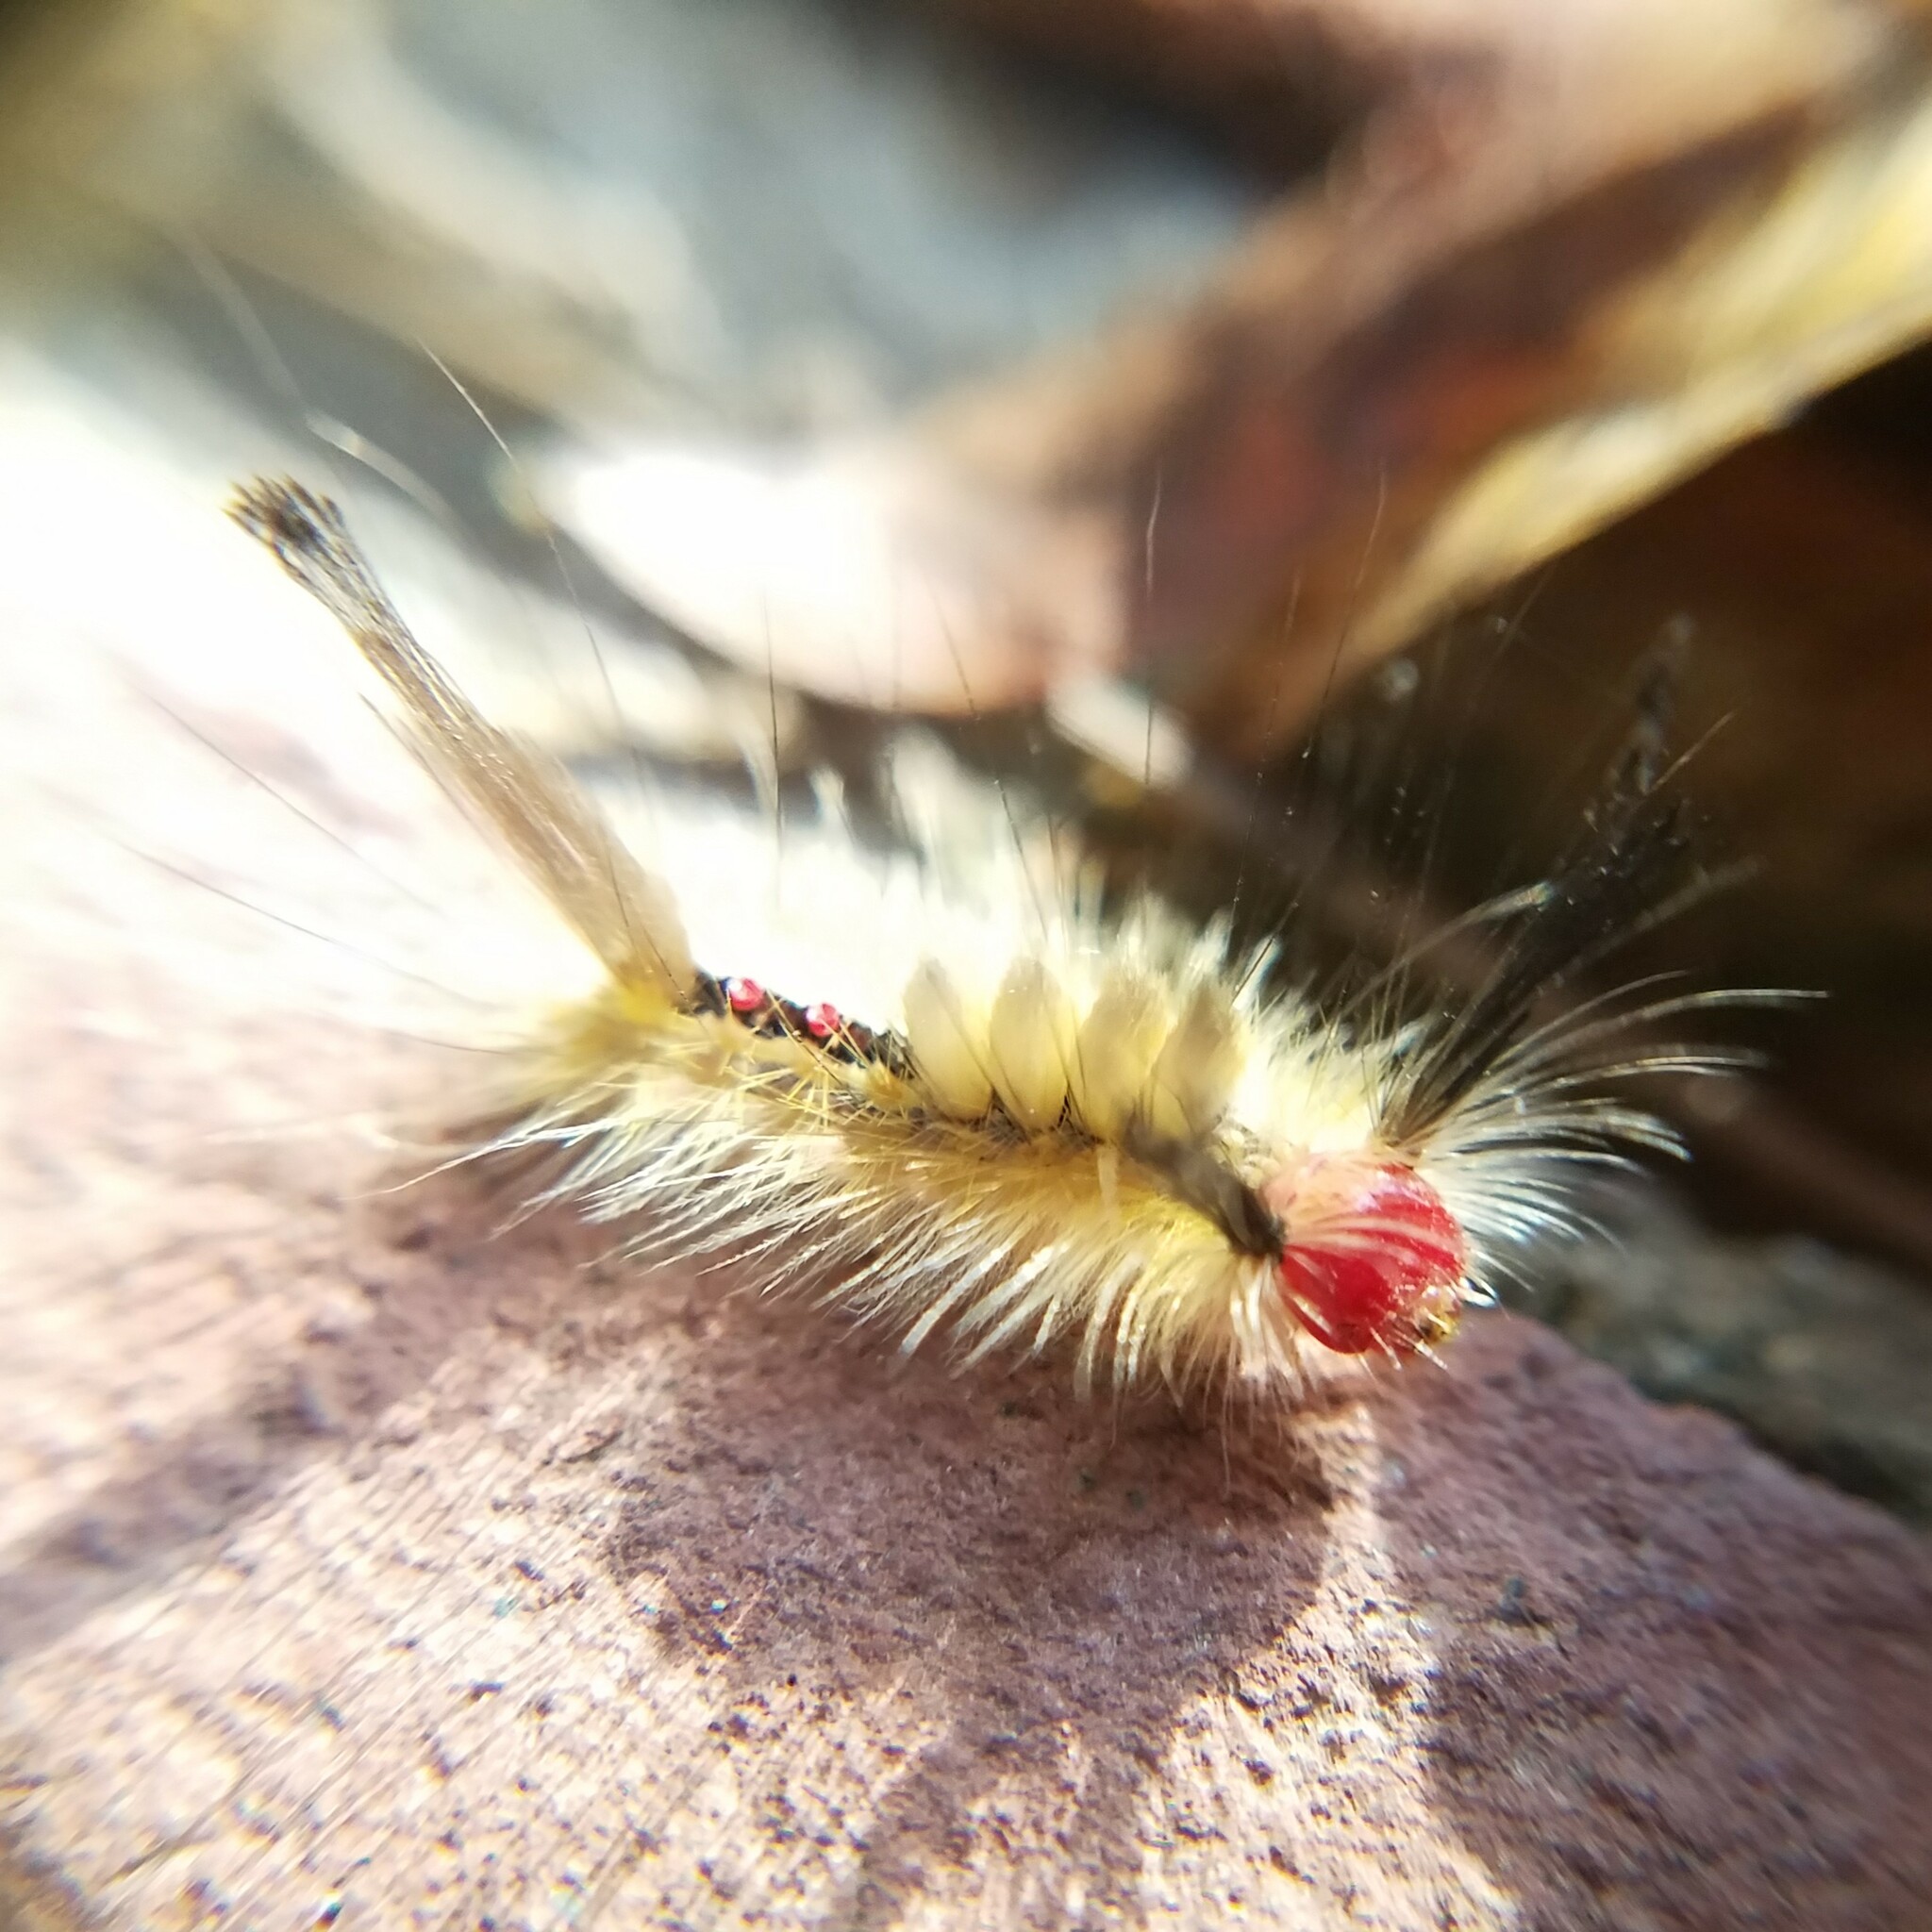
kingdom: Animalia
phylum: Arthropoda
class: Insecta
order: Lepidoptera
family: Erebidae
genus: Orgyia
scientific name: Orgyia leucostigma
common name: White-marked tussock moth
